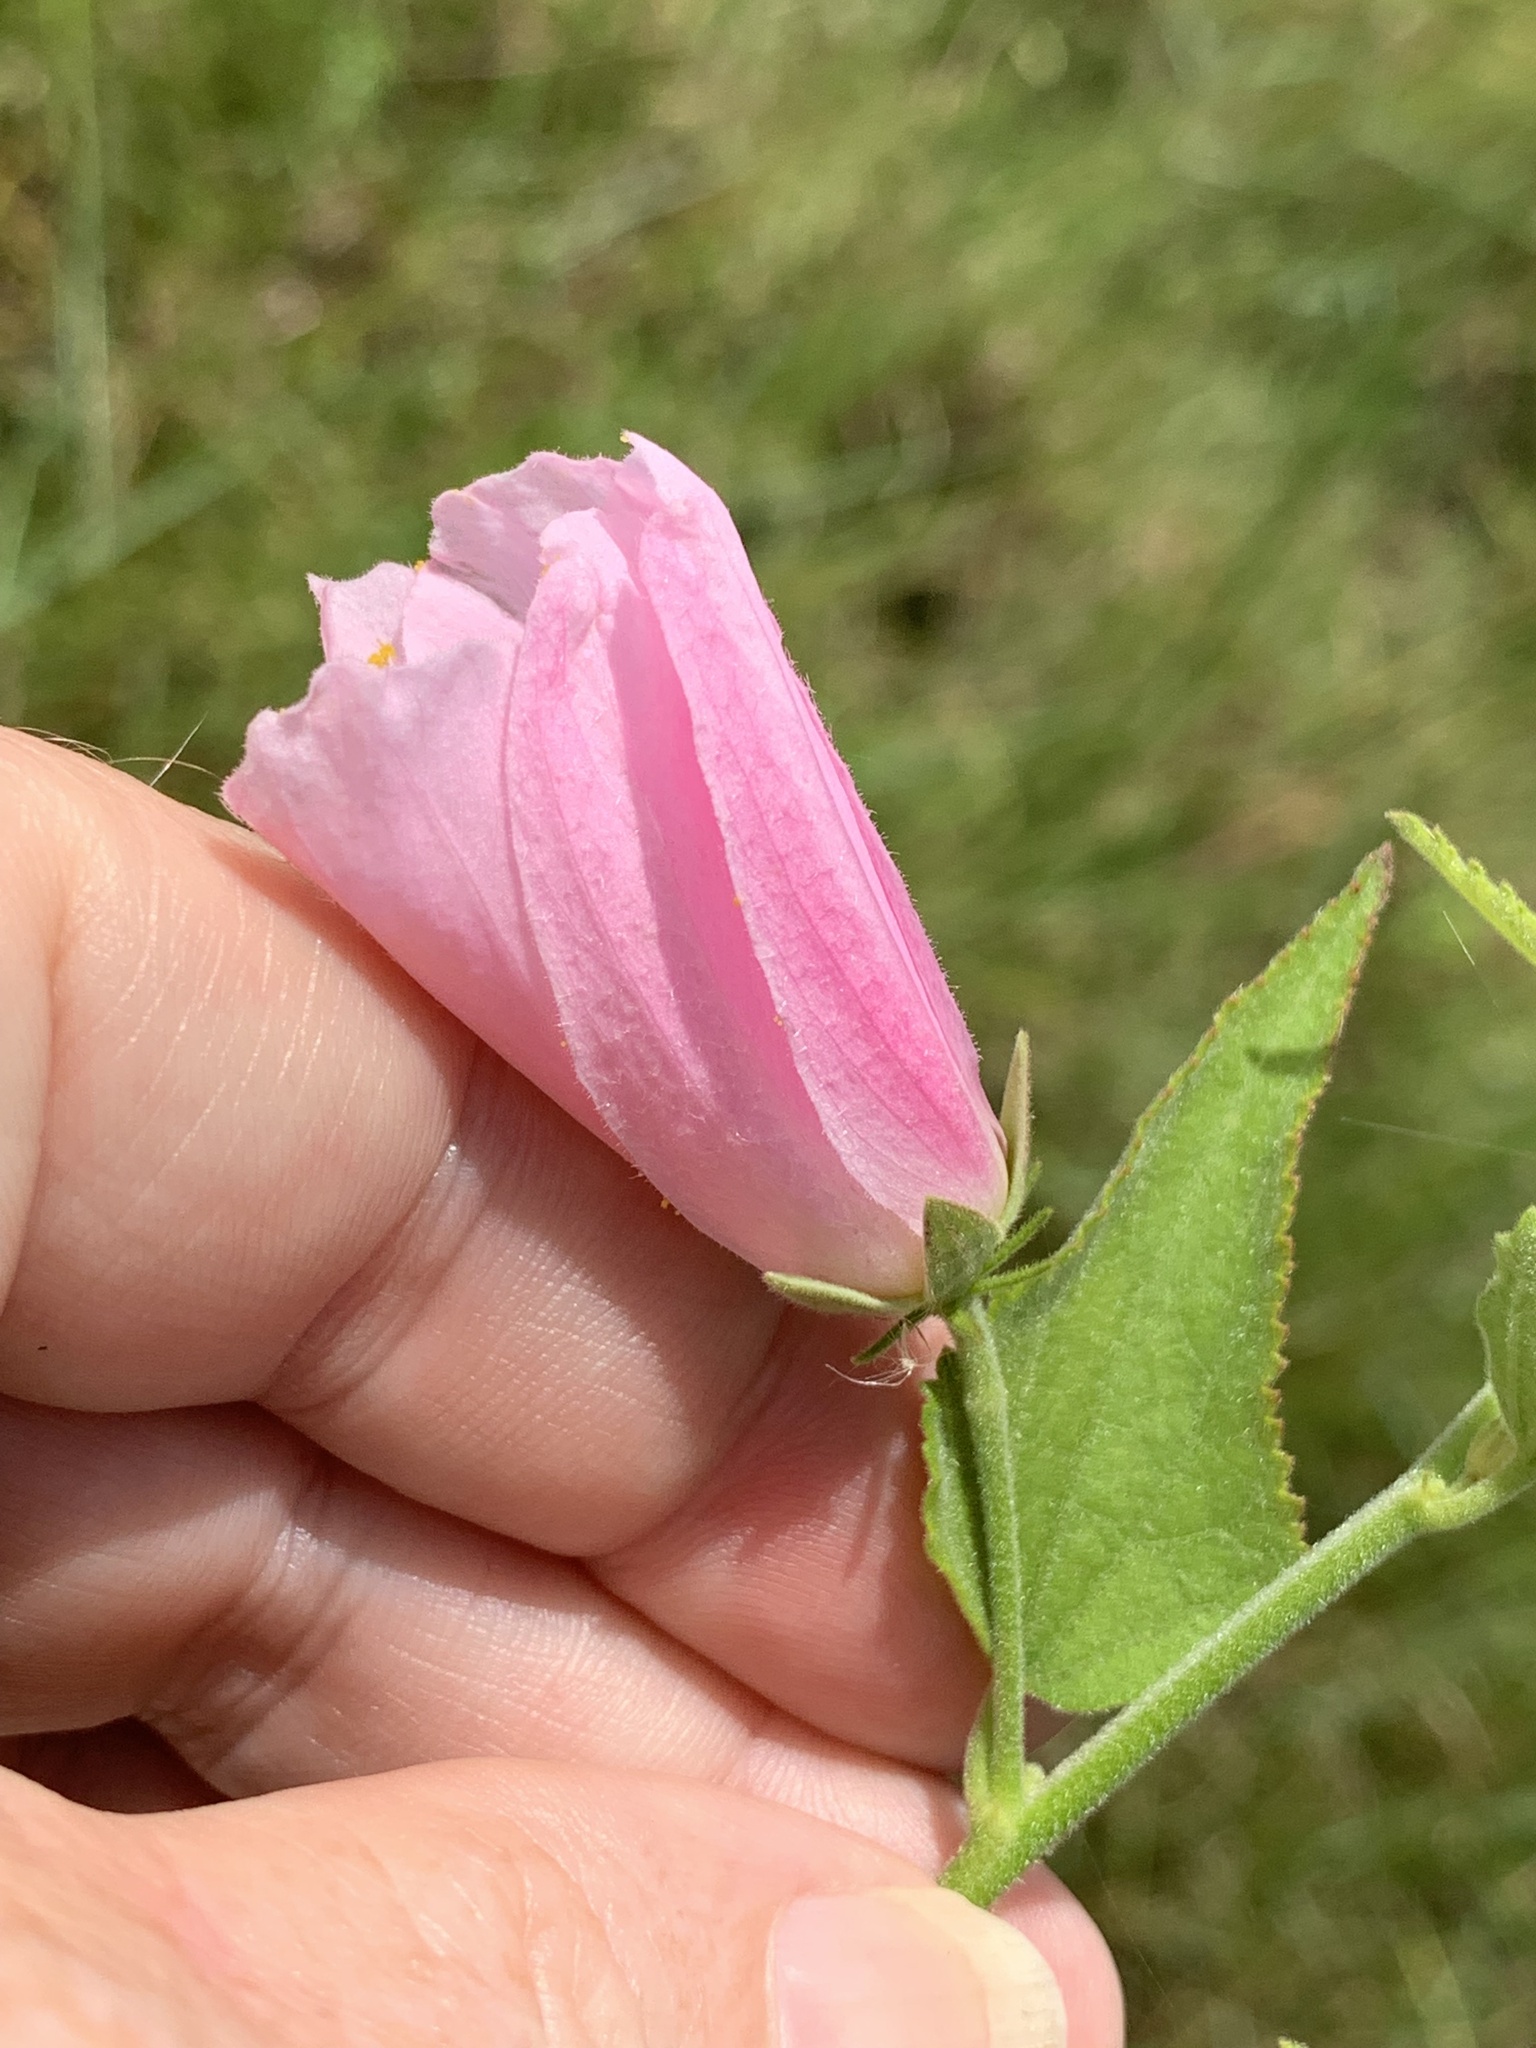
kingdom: Plantae
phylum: Tracheophyta
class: Magnoliopsida
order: Malvales
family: Malvaceae
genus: Kosteletzkya
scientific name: Kosteletzkya pentacarpos
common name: Virginia saltmarsh mallow
